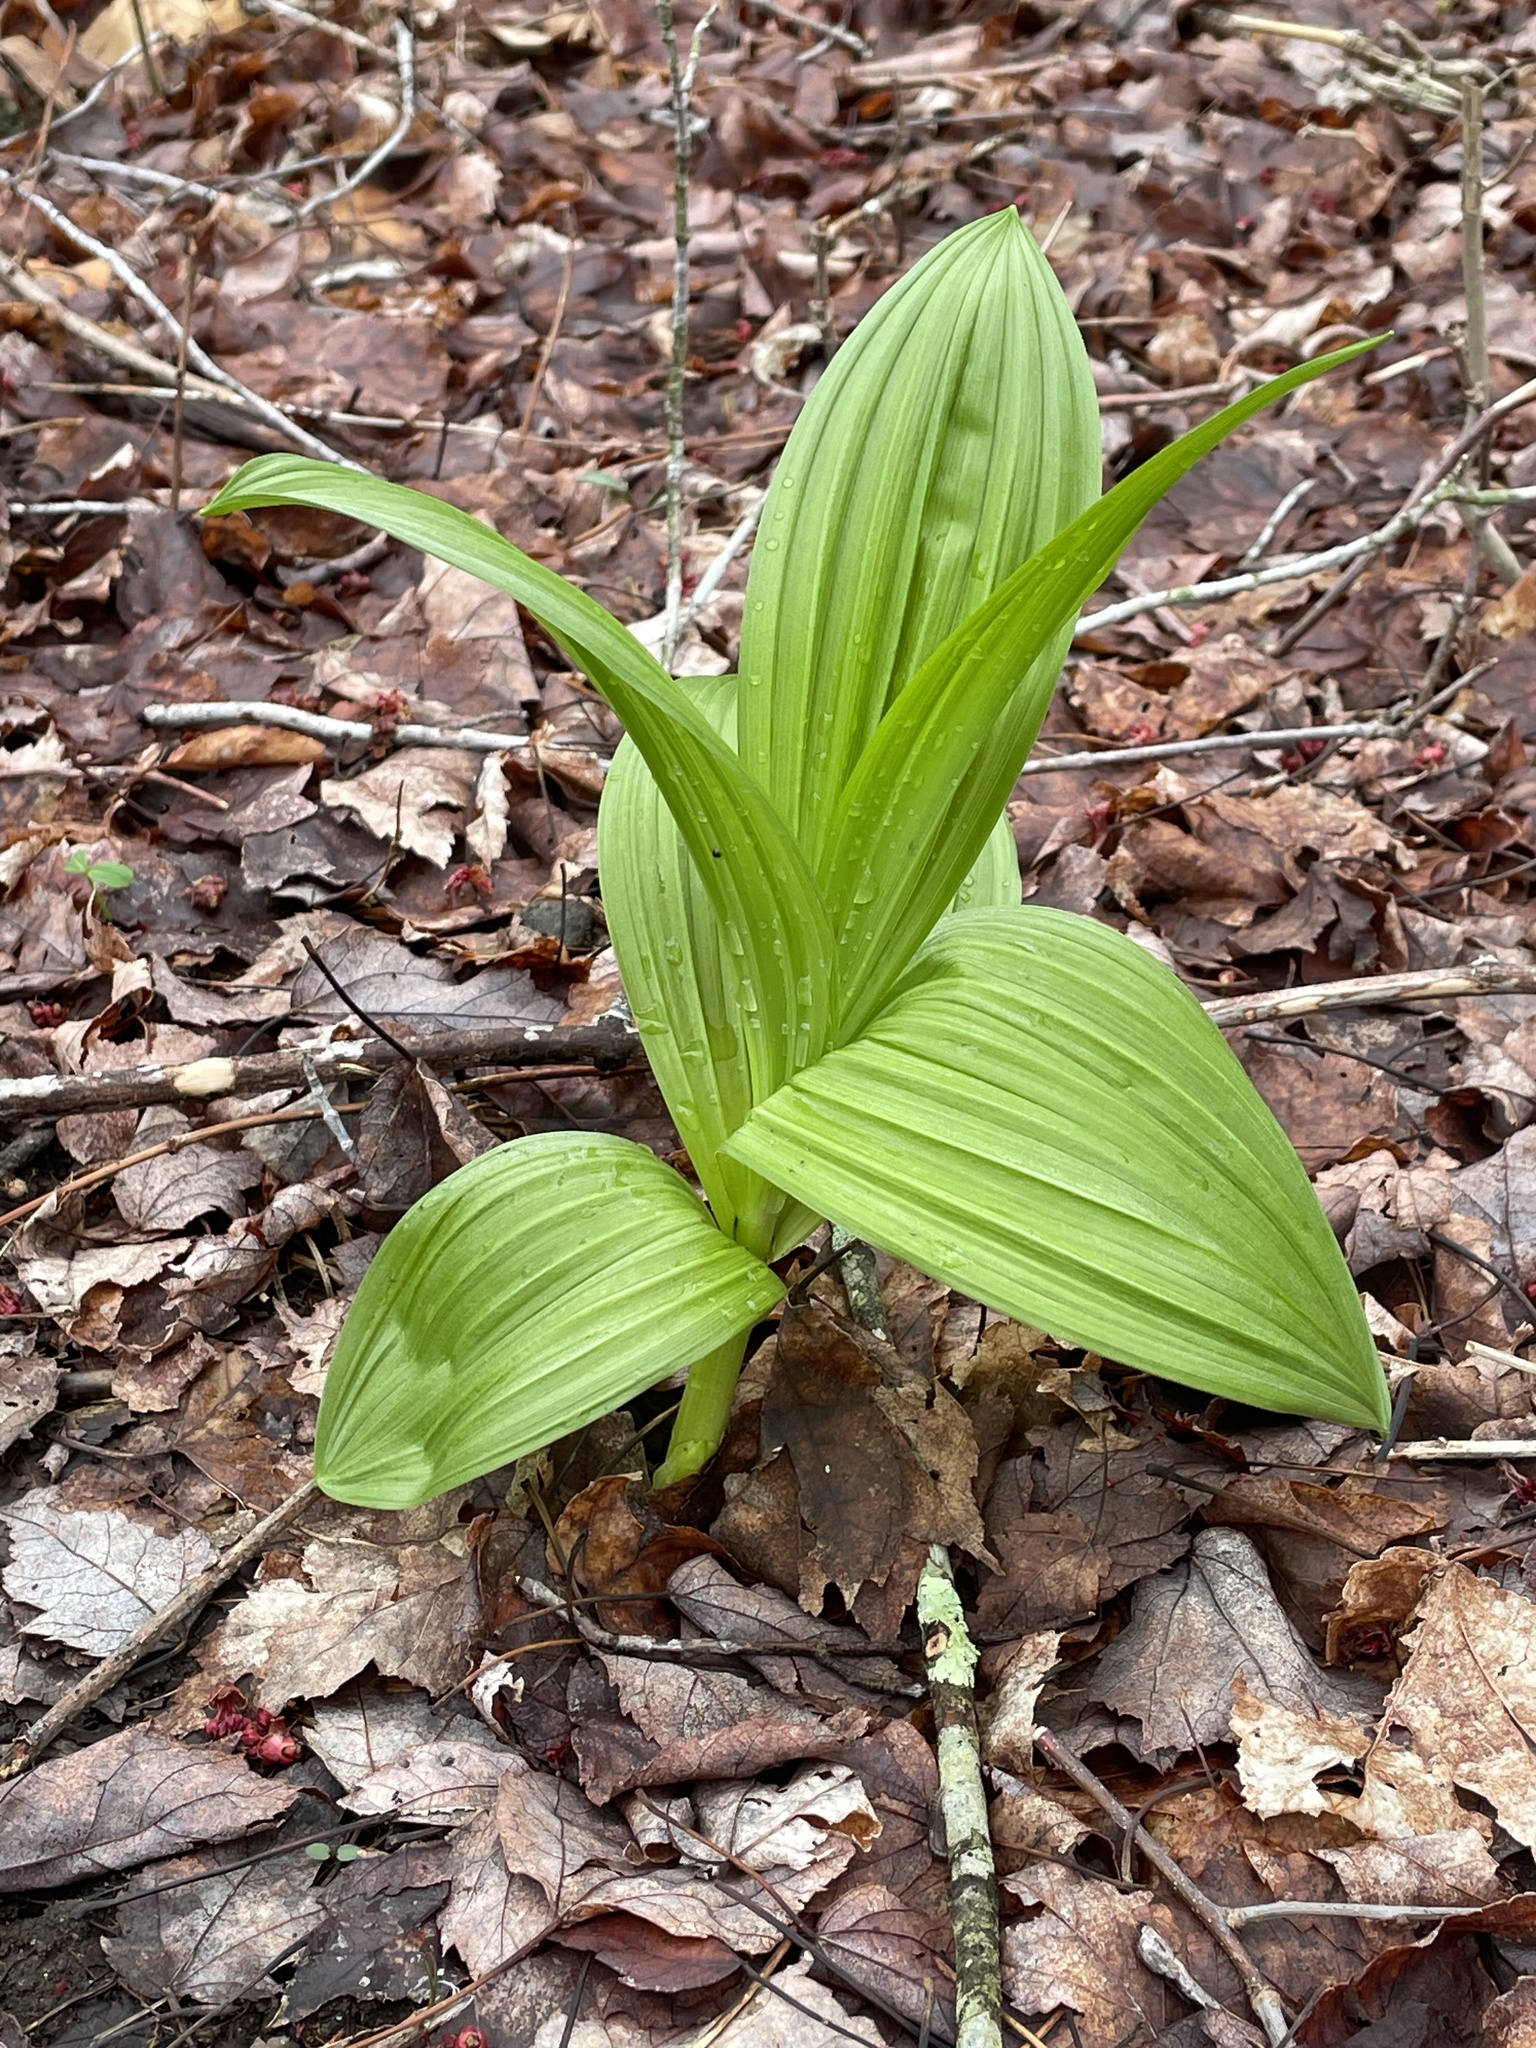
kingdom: Plantae
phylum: Tracheophyta
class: Liliopsida
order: Liliales
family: Melanthiaceae
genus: Veratrum
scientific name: Veratrum viride
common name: American false hellebore
